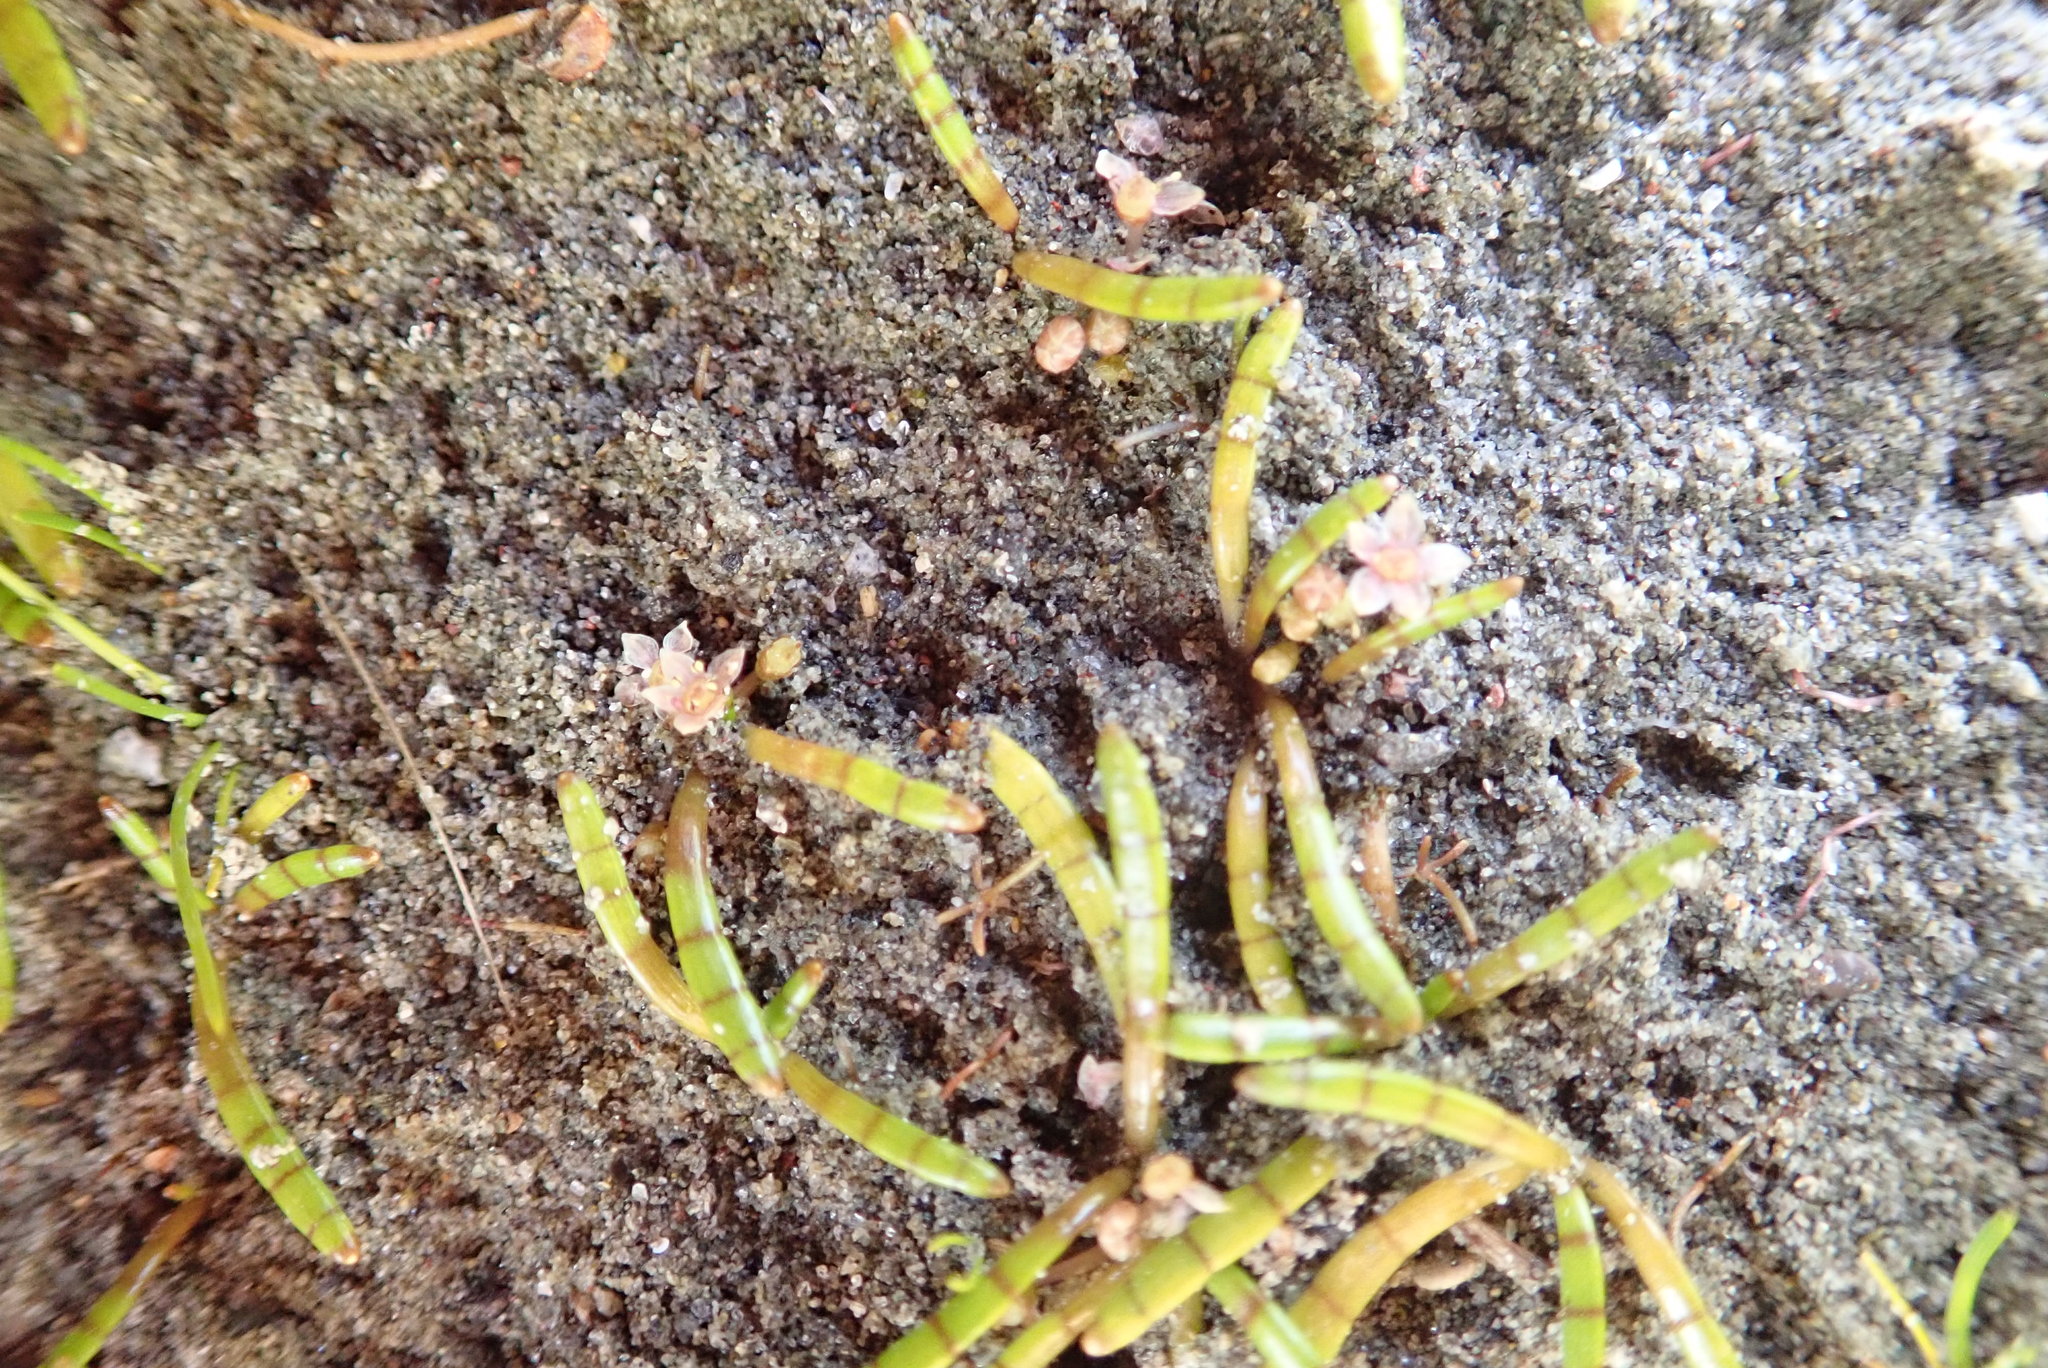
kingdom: Plantae
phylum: Tracheophyta
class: Magnoliopsida
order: Apiales
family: Apiaceae
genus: Lilaeopsis
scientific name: Lilaeopsis novae-zelandiae
